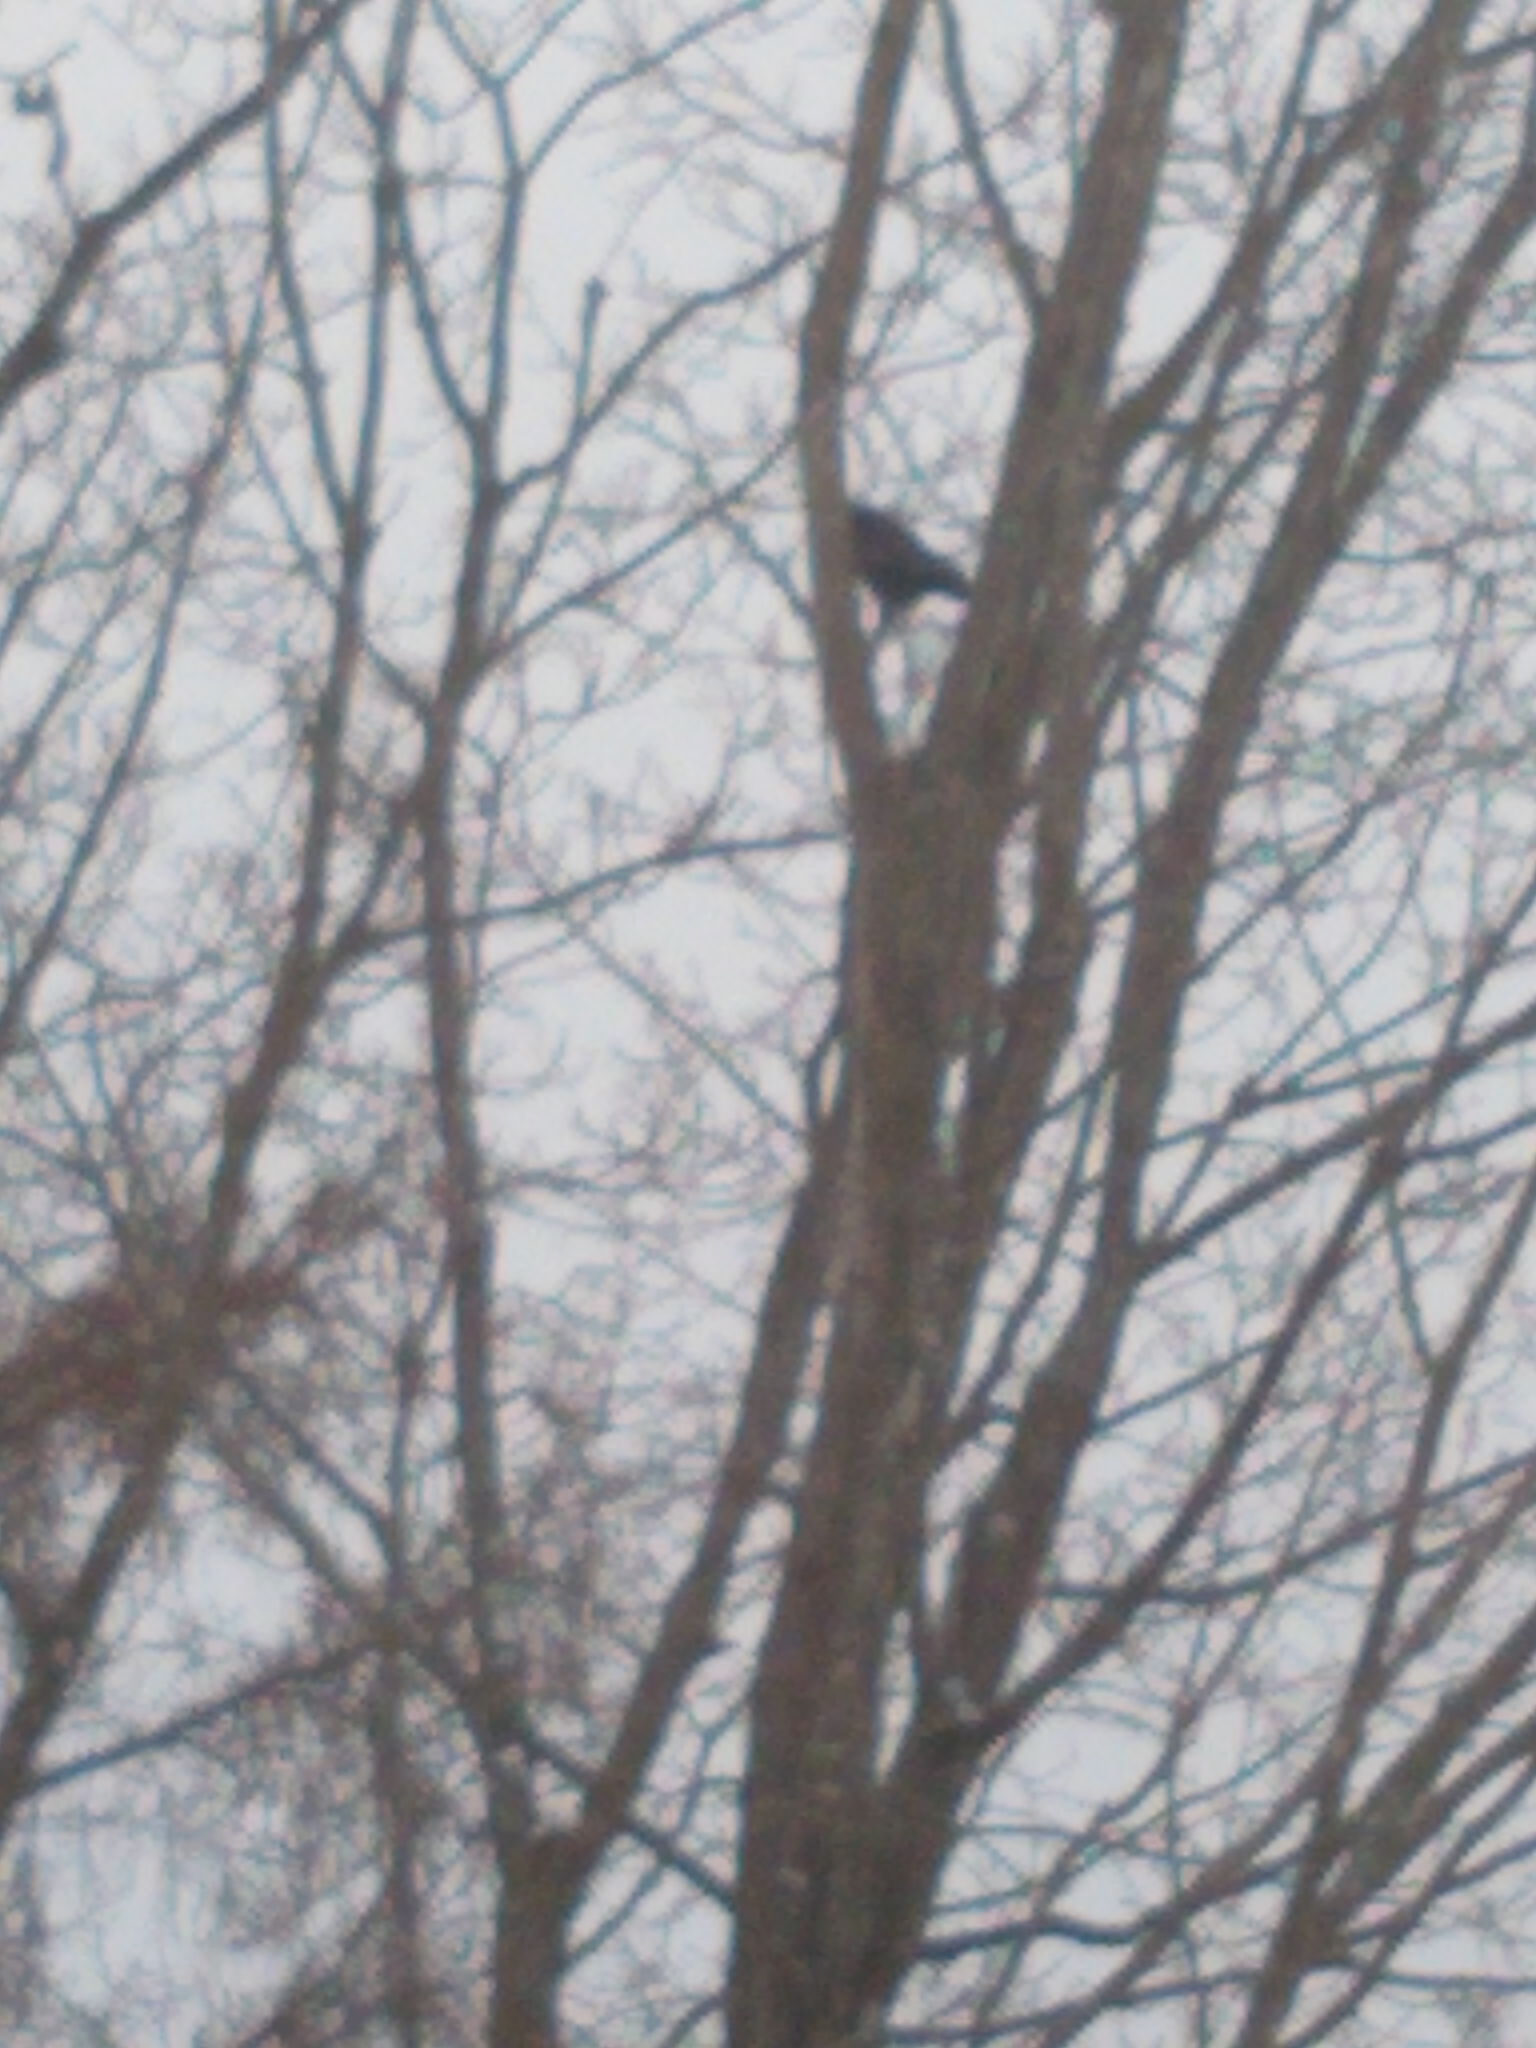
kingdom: Animalia
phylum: Chordata
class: Aves
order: Passeriformes
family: Corvidae
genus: Corvus
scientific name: Corvus
